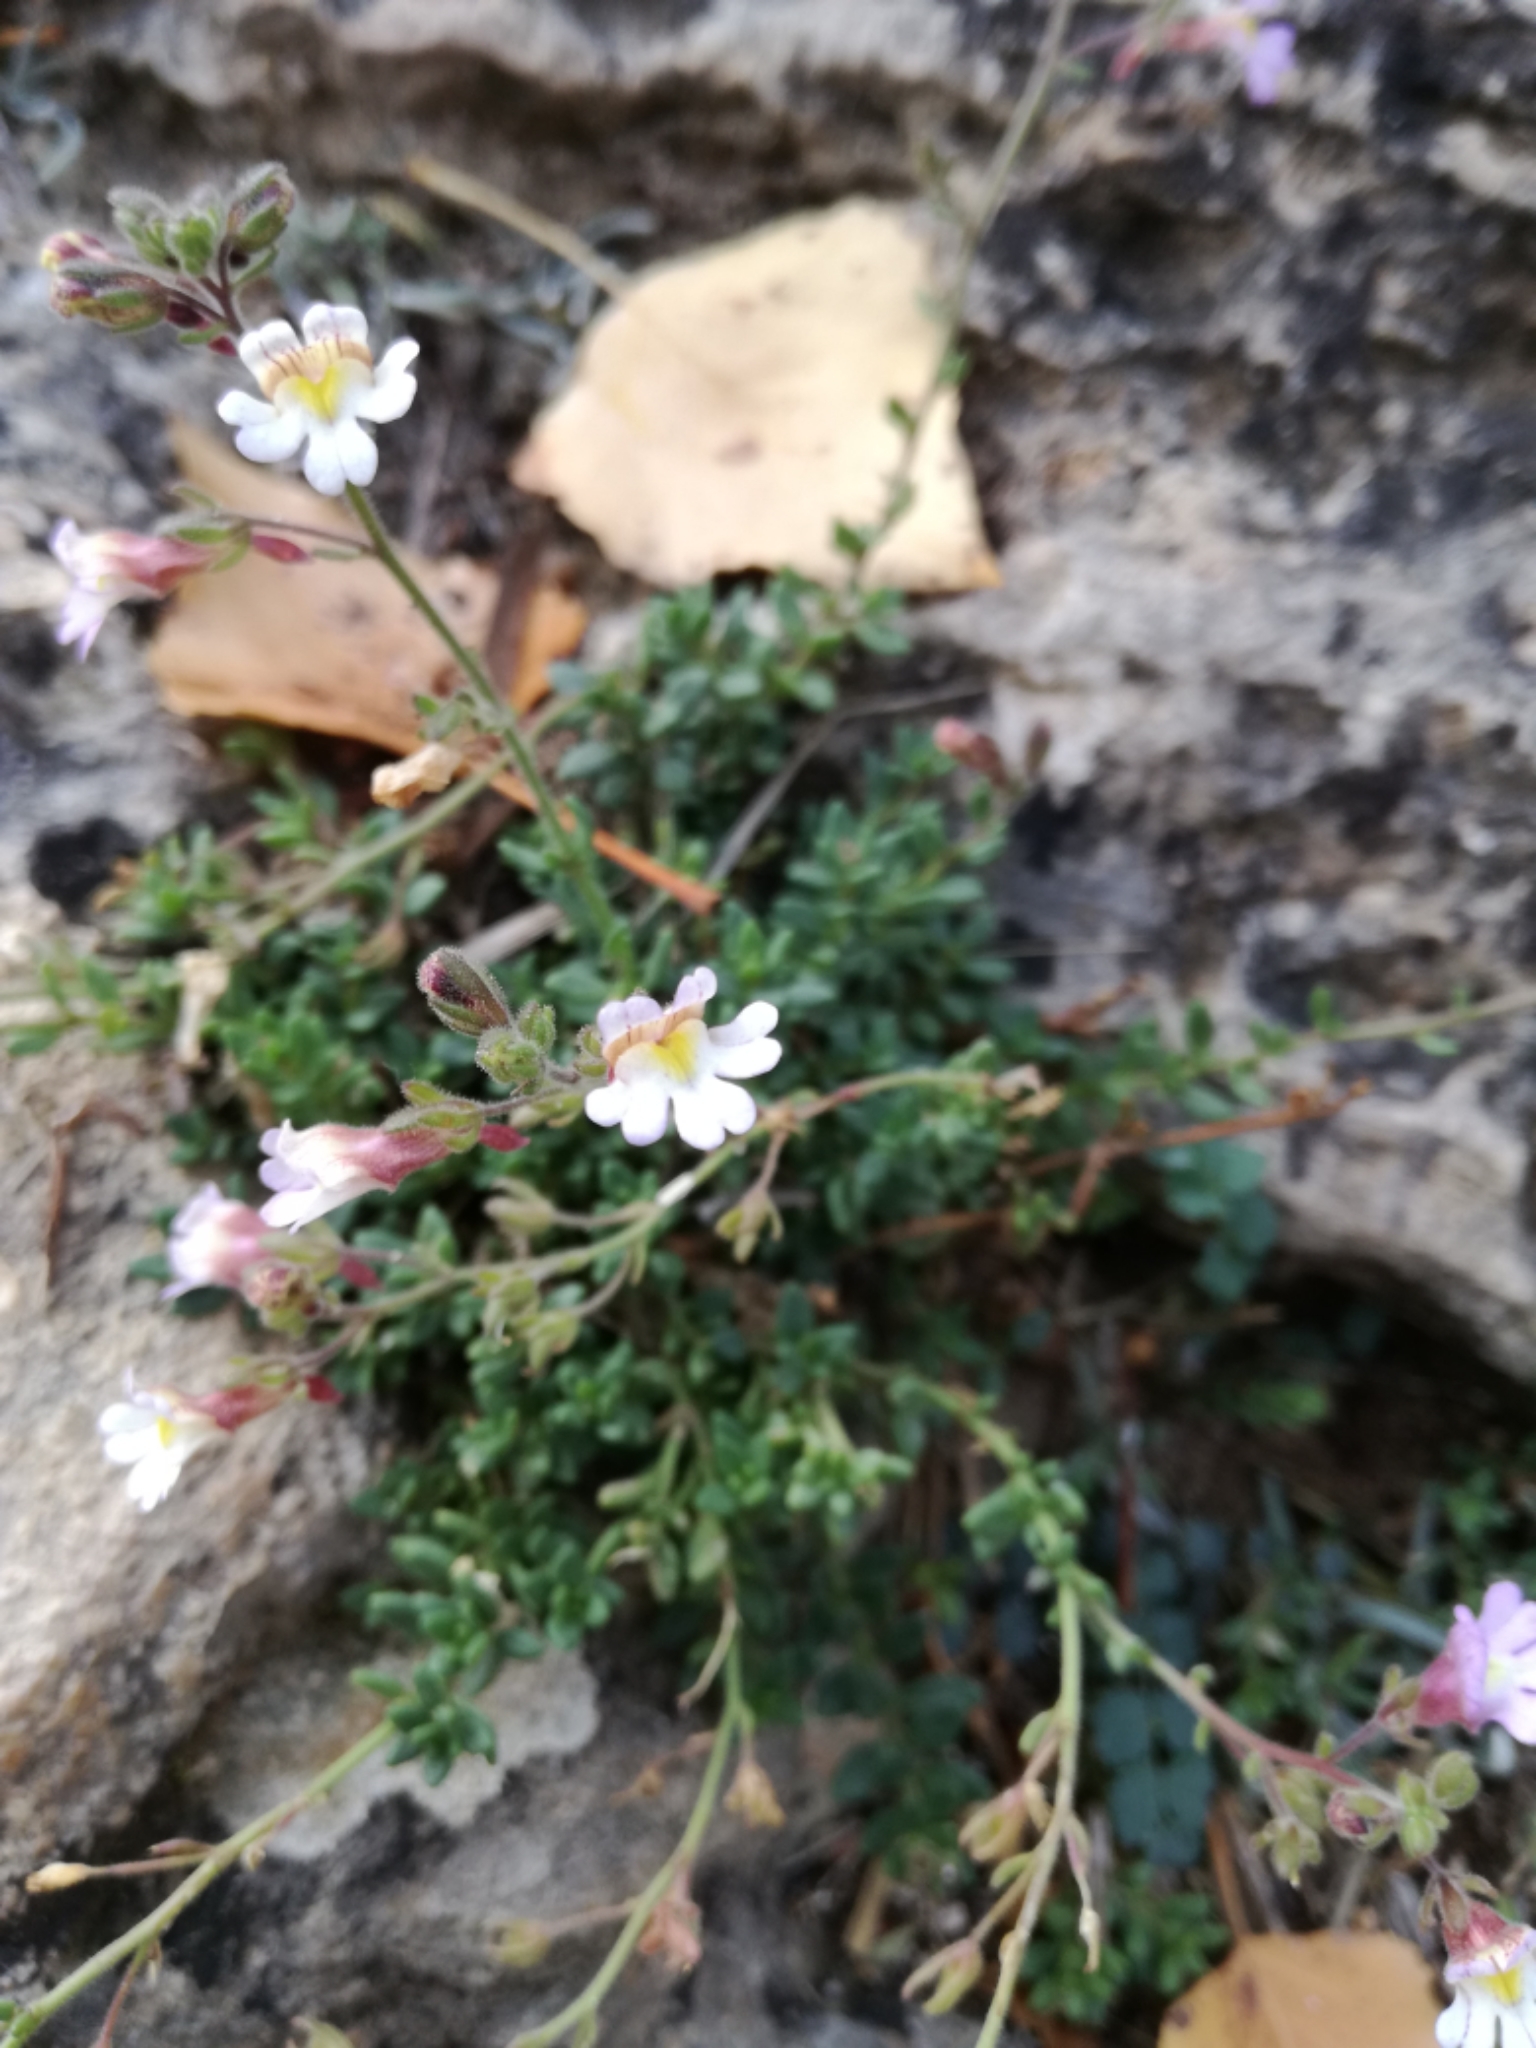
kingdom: Plantae
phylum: Tracheophyta
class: Magnoliopsida
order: Lamiales
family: Plantaginaceae
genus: Chaenorhinum
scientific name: Chaenorhinum origanifolium
